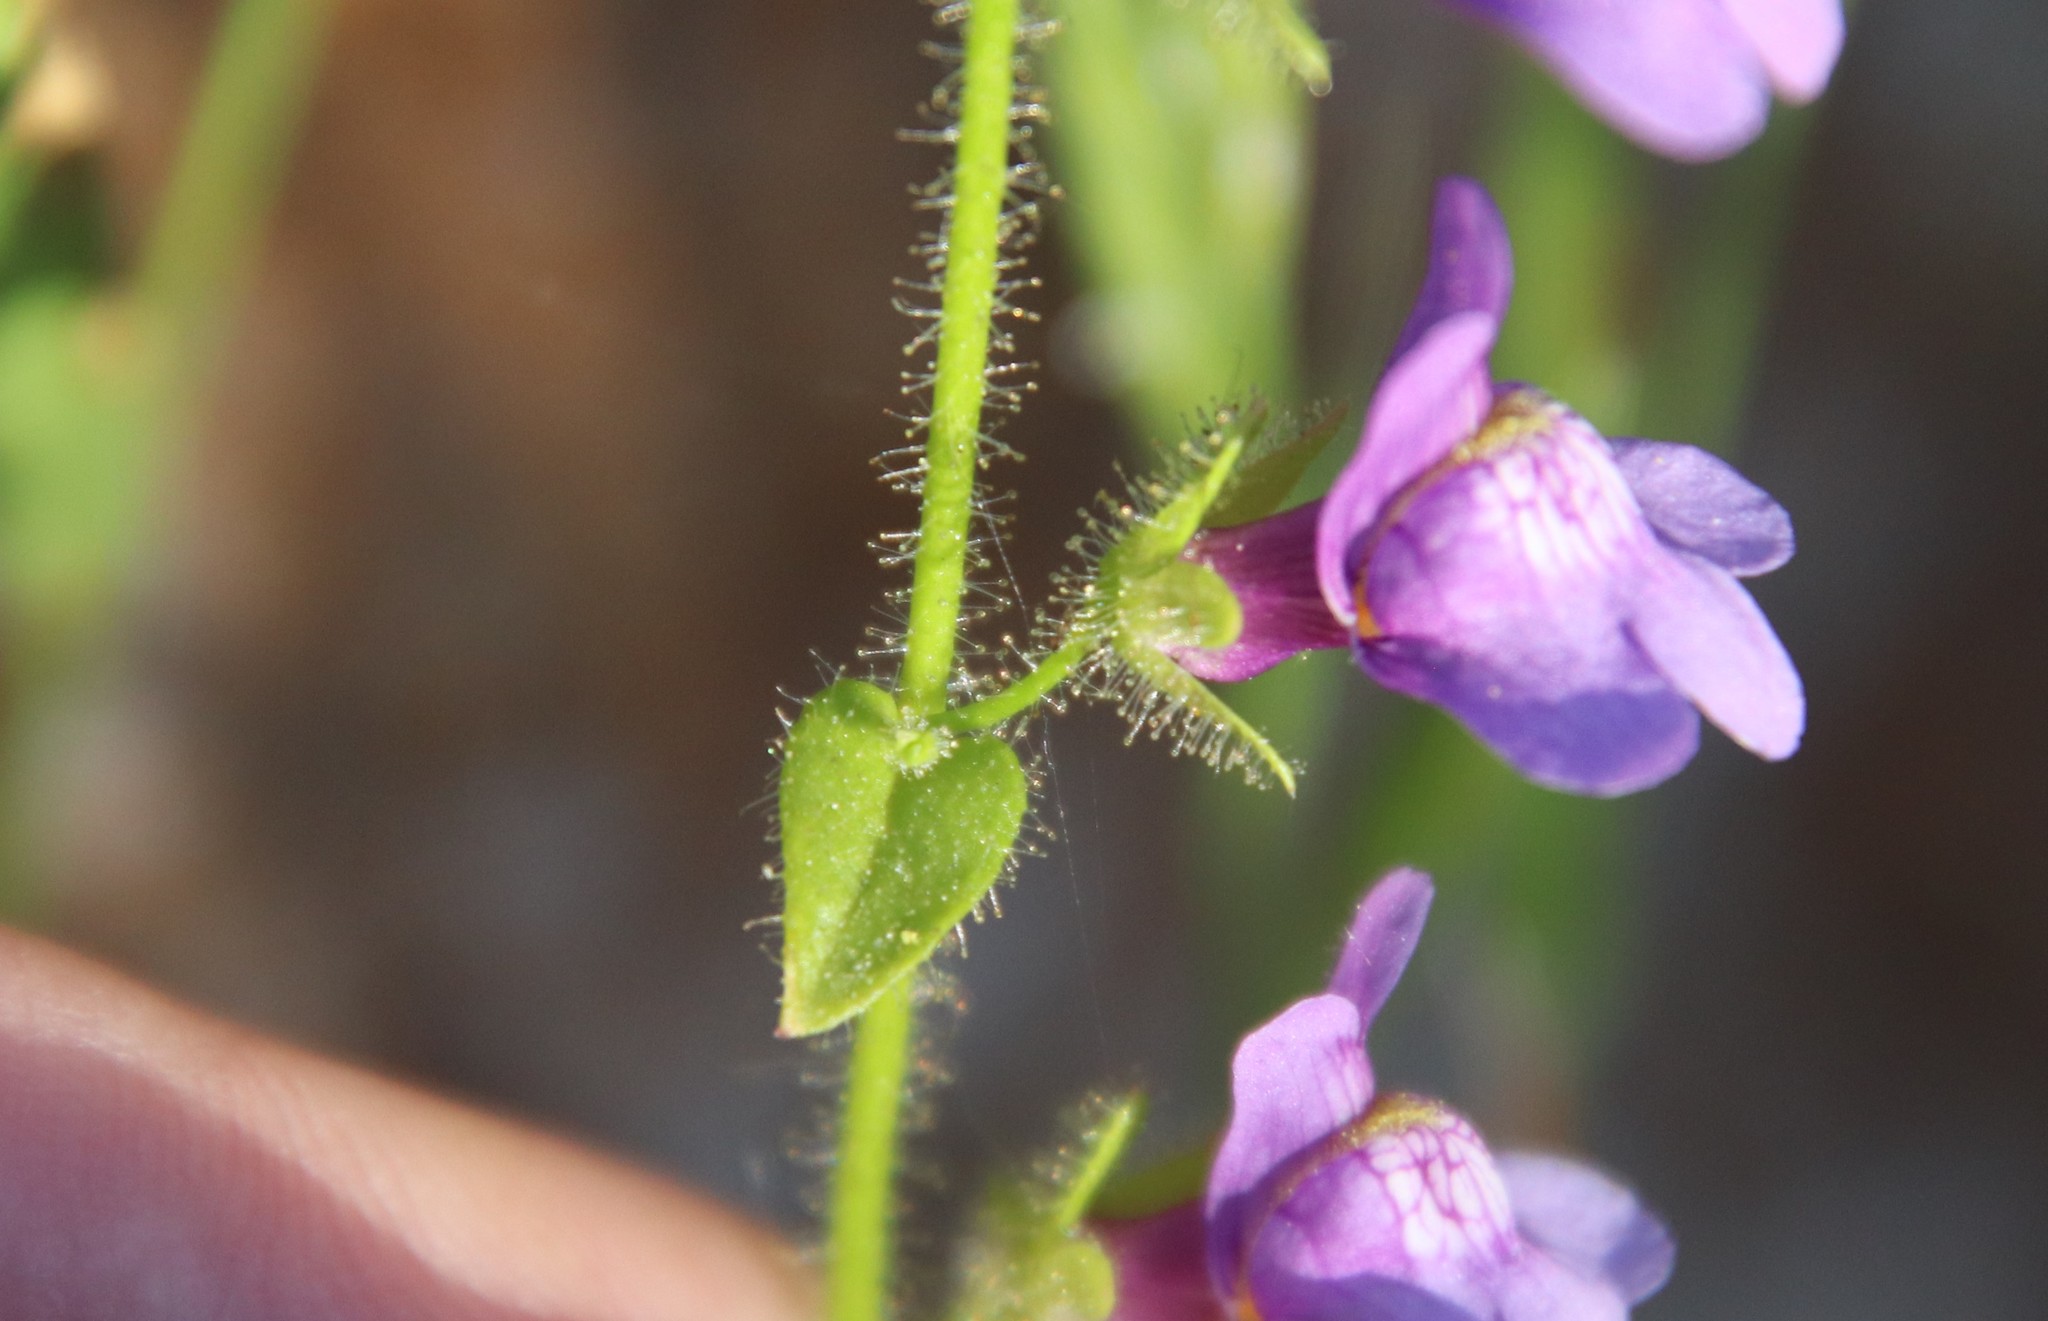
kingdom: Plantae
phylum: Tracheophyta
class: Magnoliopsida
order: Lamiales
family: Plantaginaceae
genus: Sairocarpus
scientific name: Sairocarpus nuttallianus
